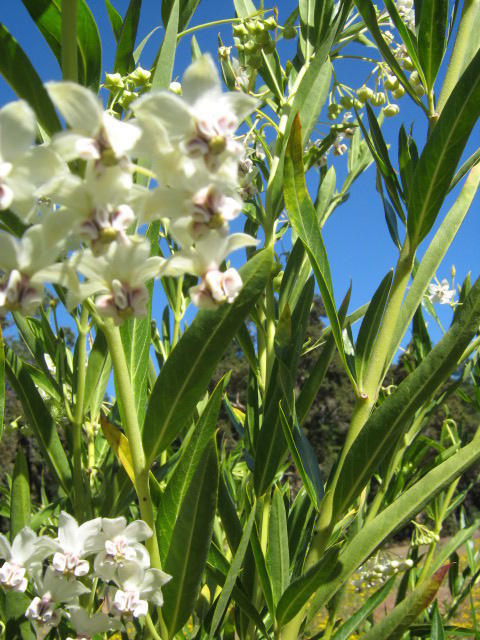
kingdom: Plantae
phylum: Tracheophyta
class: Magnoliopsida
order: Gentianales
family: Apocynaceae
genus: Gomphocarpus
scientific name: Gomphocarpus physocarpus
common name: Balloon cotton bush
